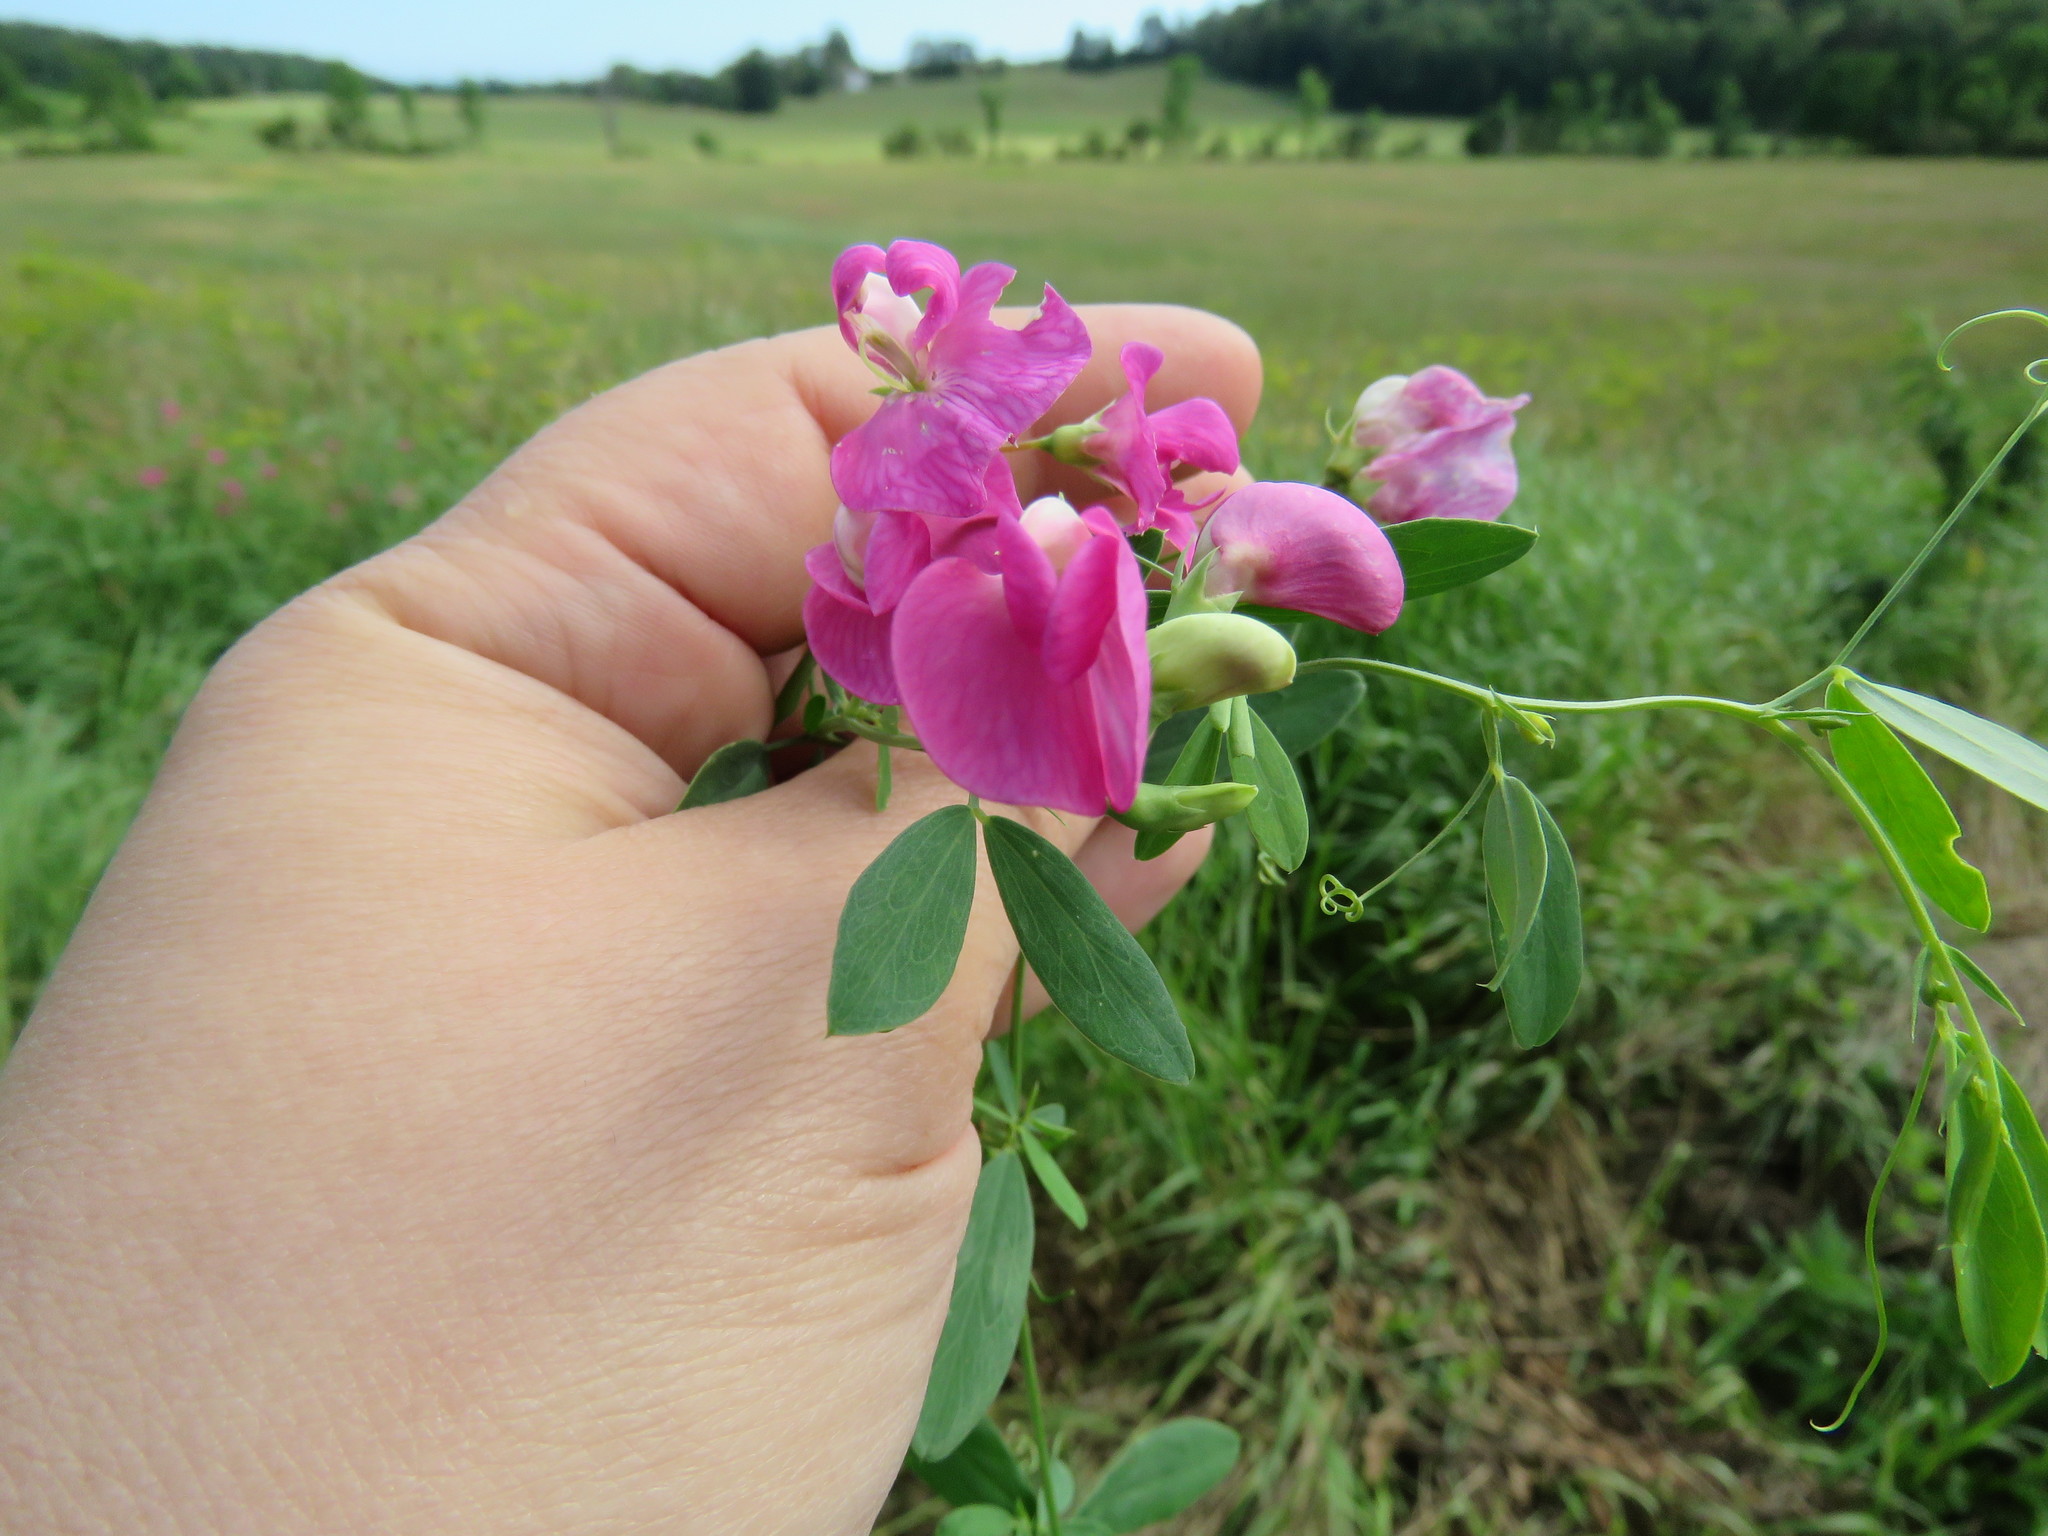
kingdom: Plantae
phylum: Tracheophyta
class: Magnoliopsida
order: Fabales
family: Fabaceae
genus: Lathyrus
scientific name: Lathyrus tuberosus
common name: Tuberous pea
